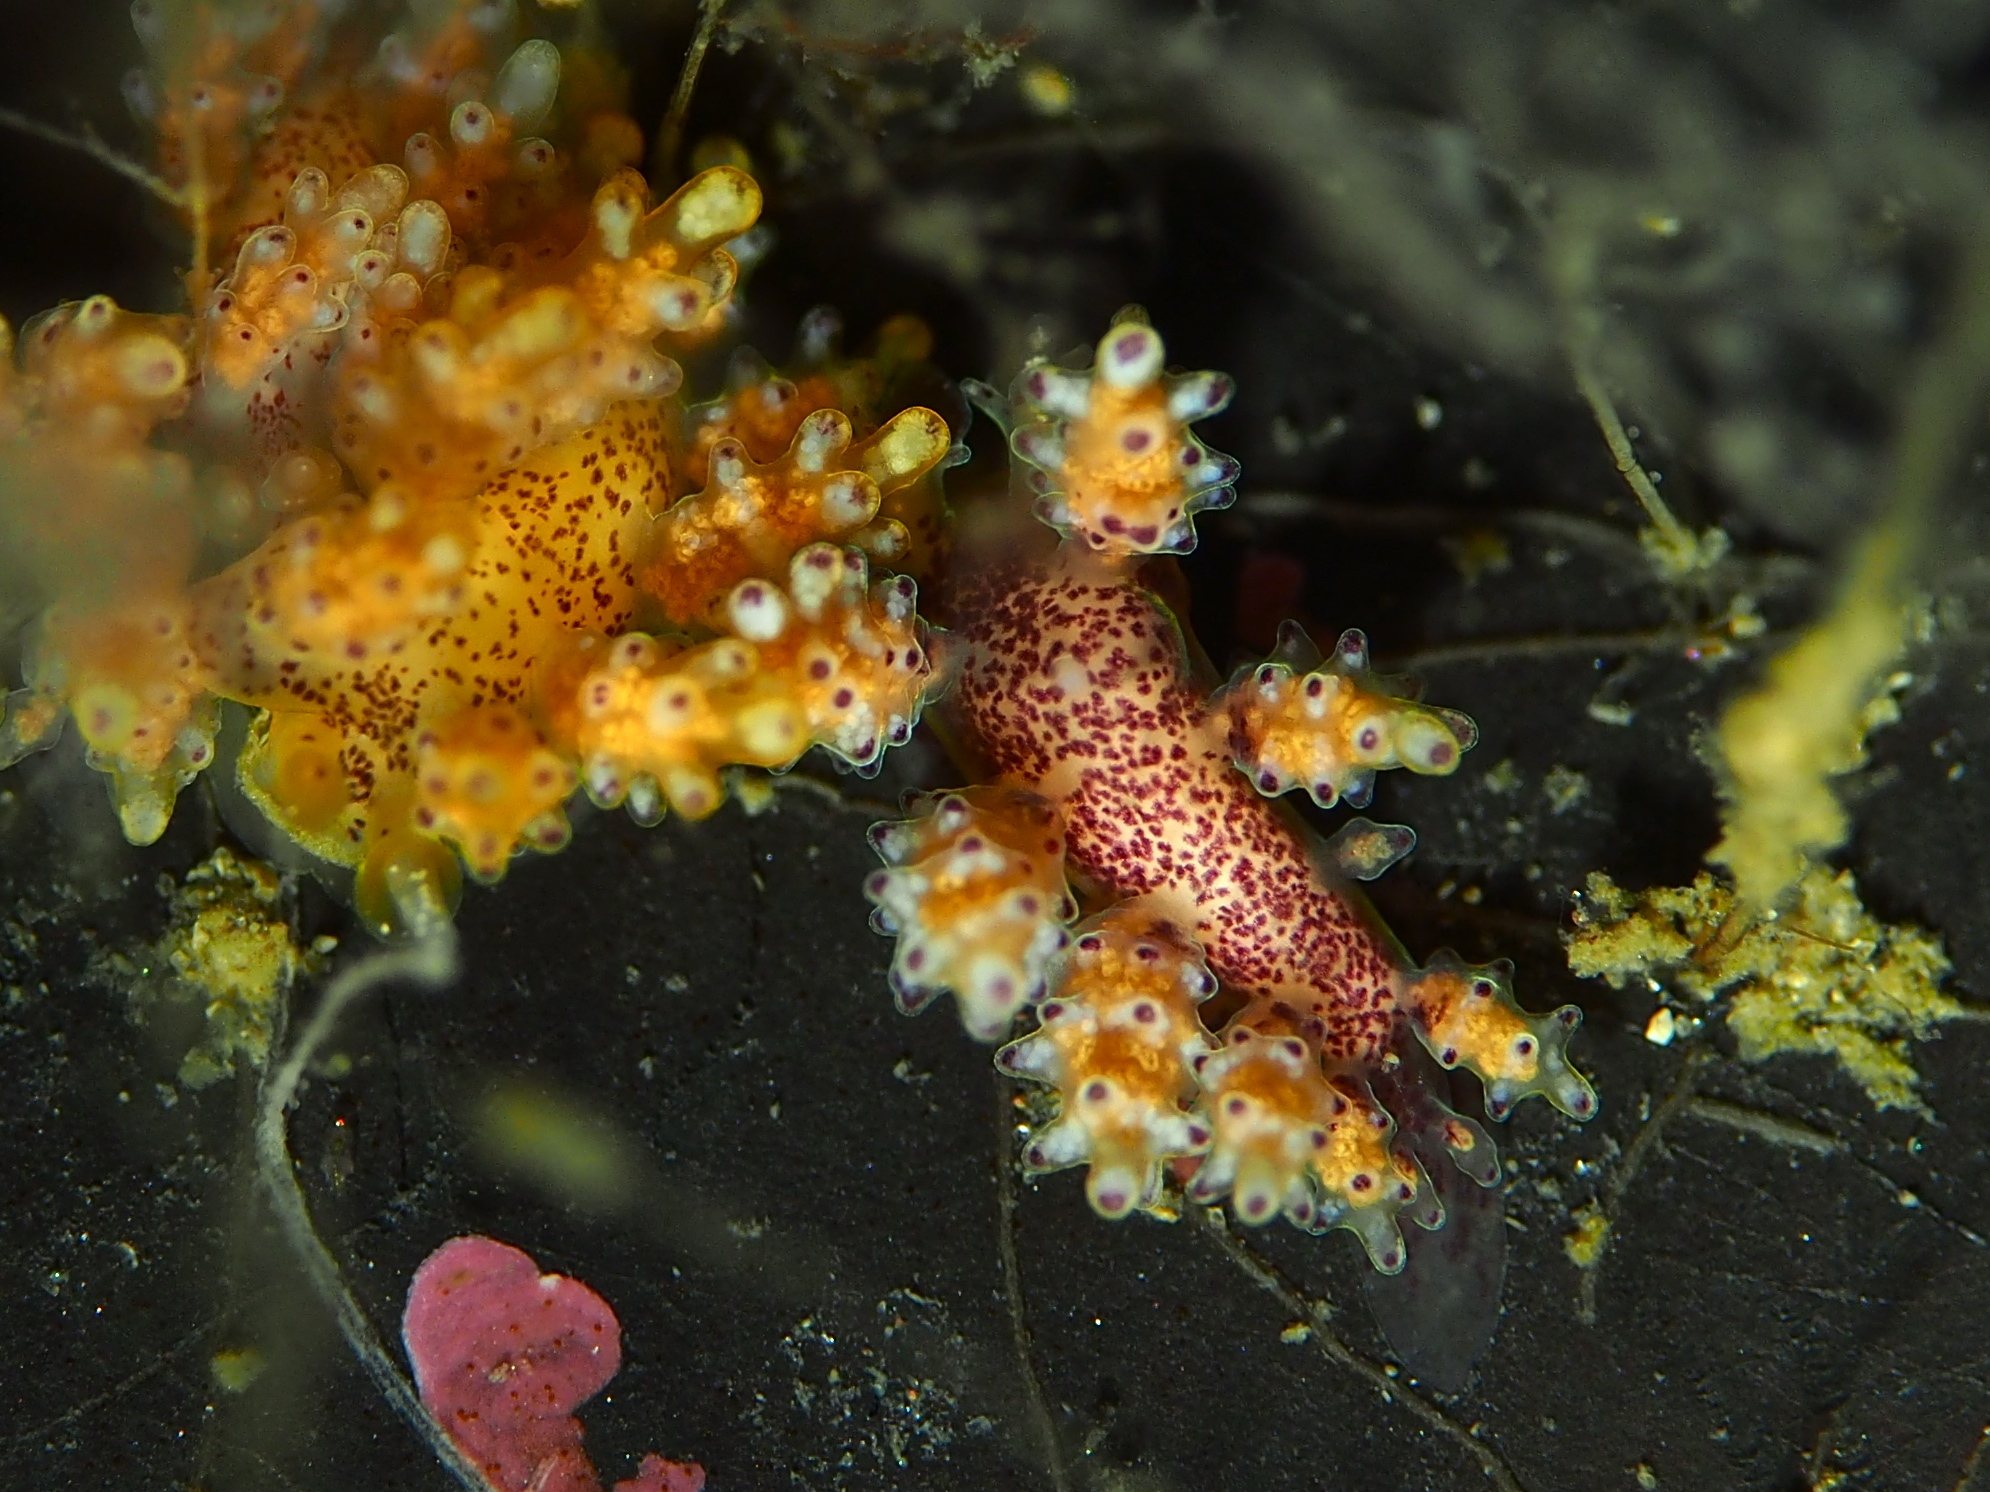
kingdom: Animalia
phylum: Mollusca
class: Gastropoda
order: Nudibranchia
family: Dotidae
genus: Doto
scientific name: Doto maculata
